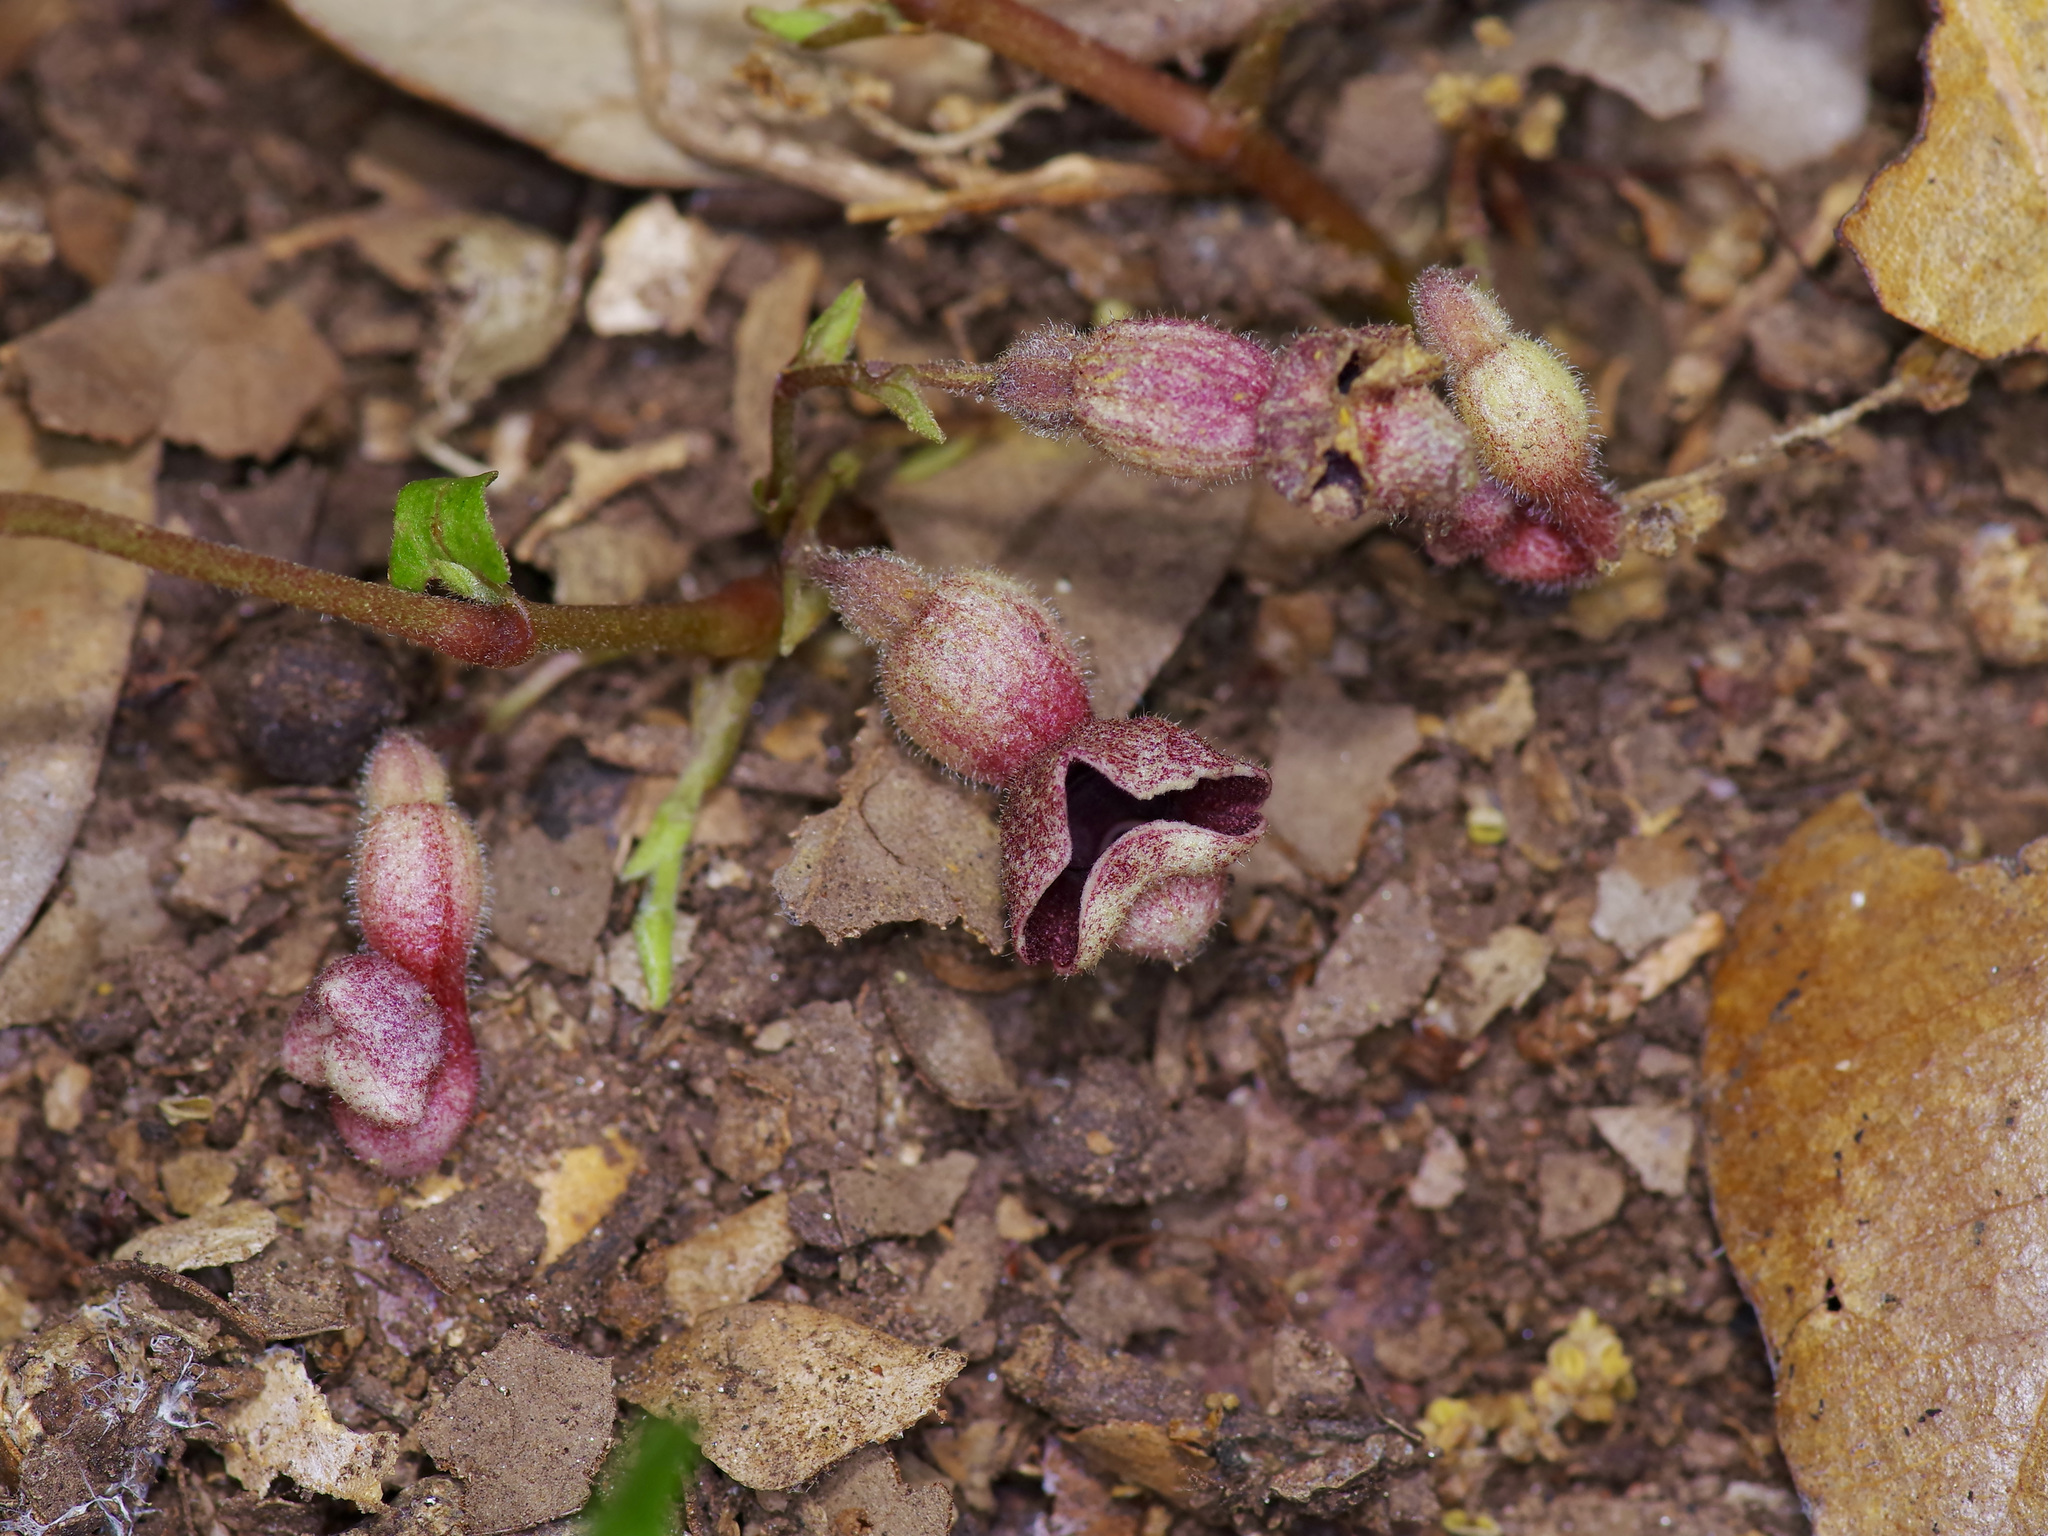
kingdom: Plantae
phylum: Tracheophyta
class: Magnoliopsida
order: Piperales
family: Aristolochiaceae
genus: Endodeca
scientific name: Endodeca serpentaria
